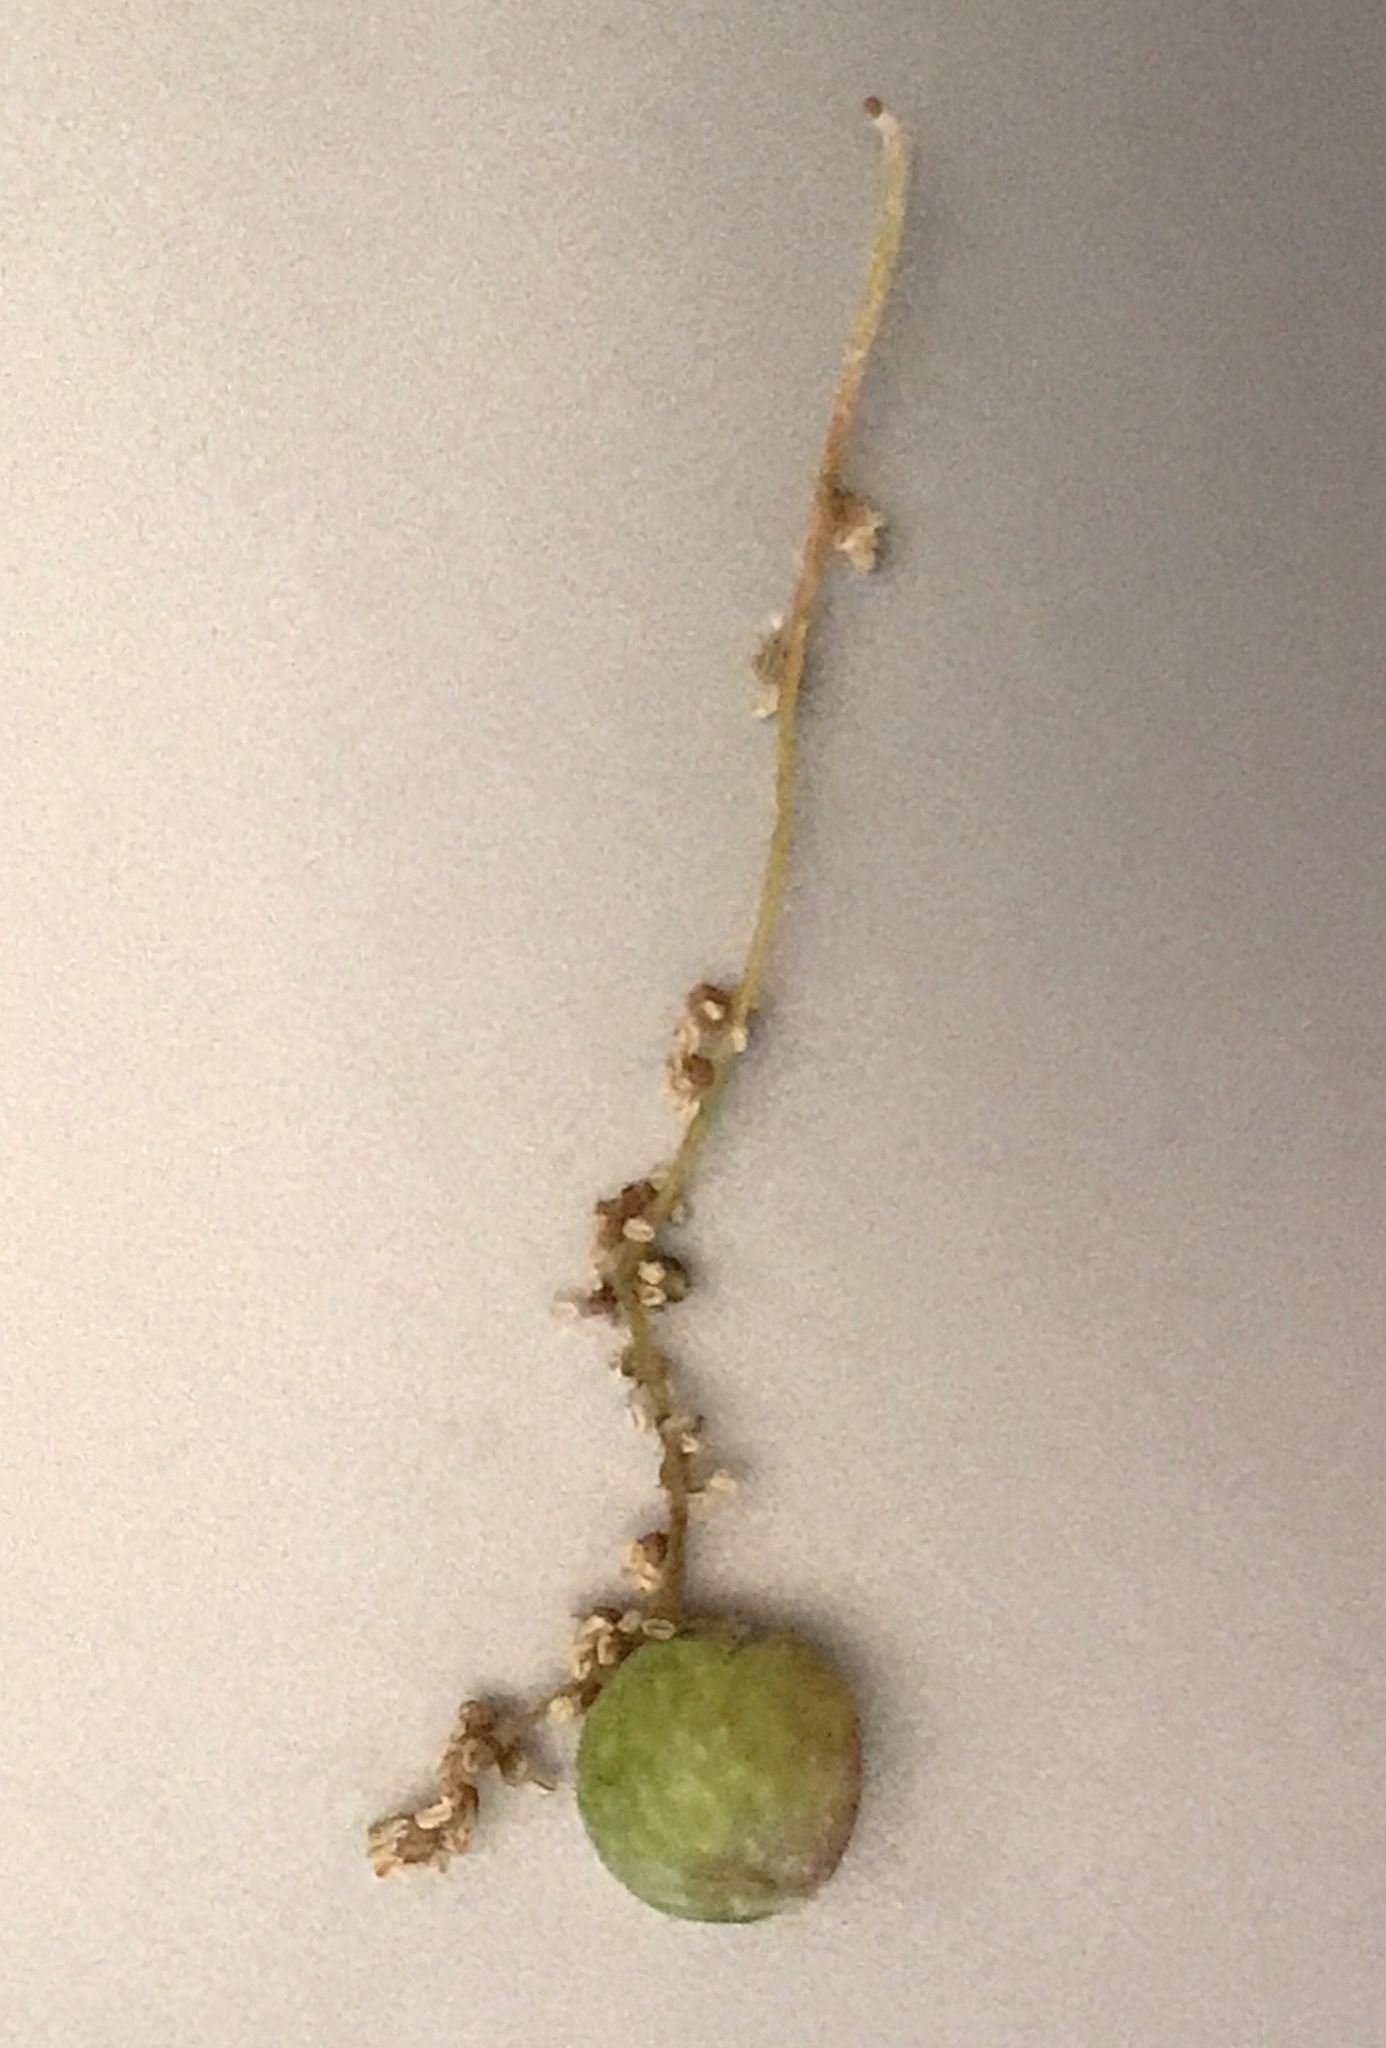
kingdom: Animalia
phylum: Arthropoda
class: Insecta
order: Hymenoptera
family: Cynipidae
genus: Dryocosmus
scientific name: Dryocosmus quercuspalustris
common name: Succulent oak gall wasp
